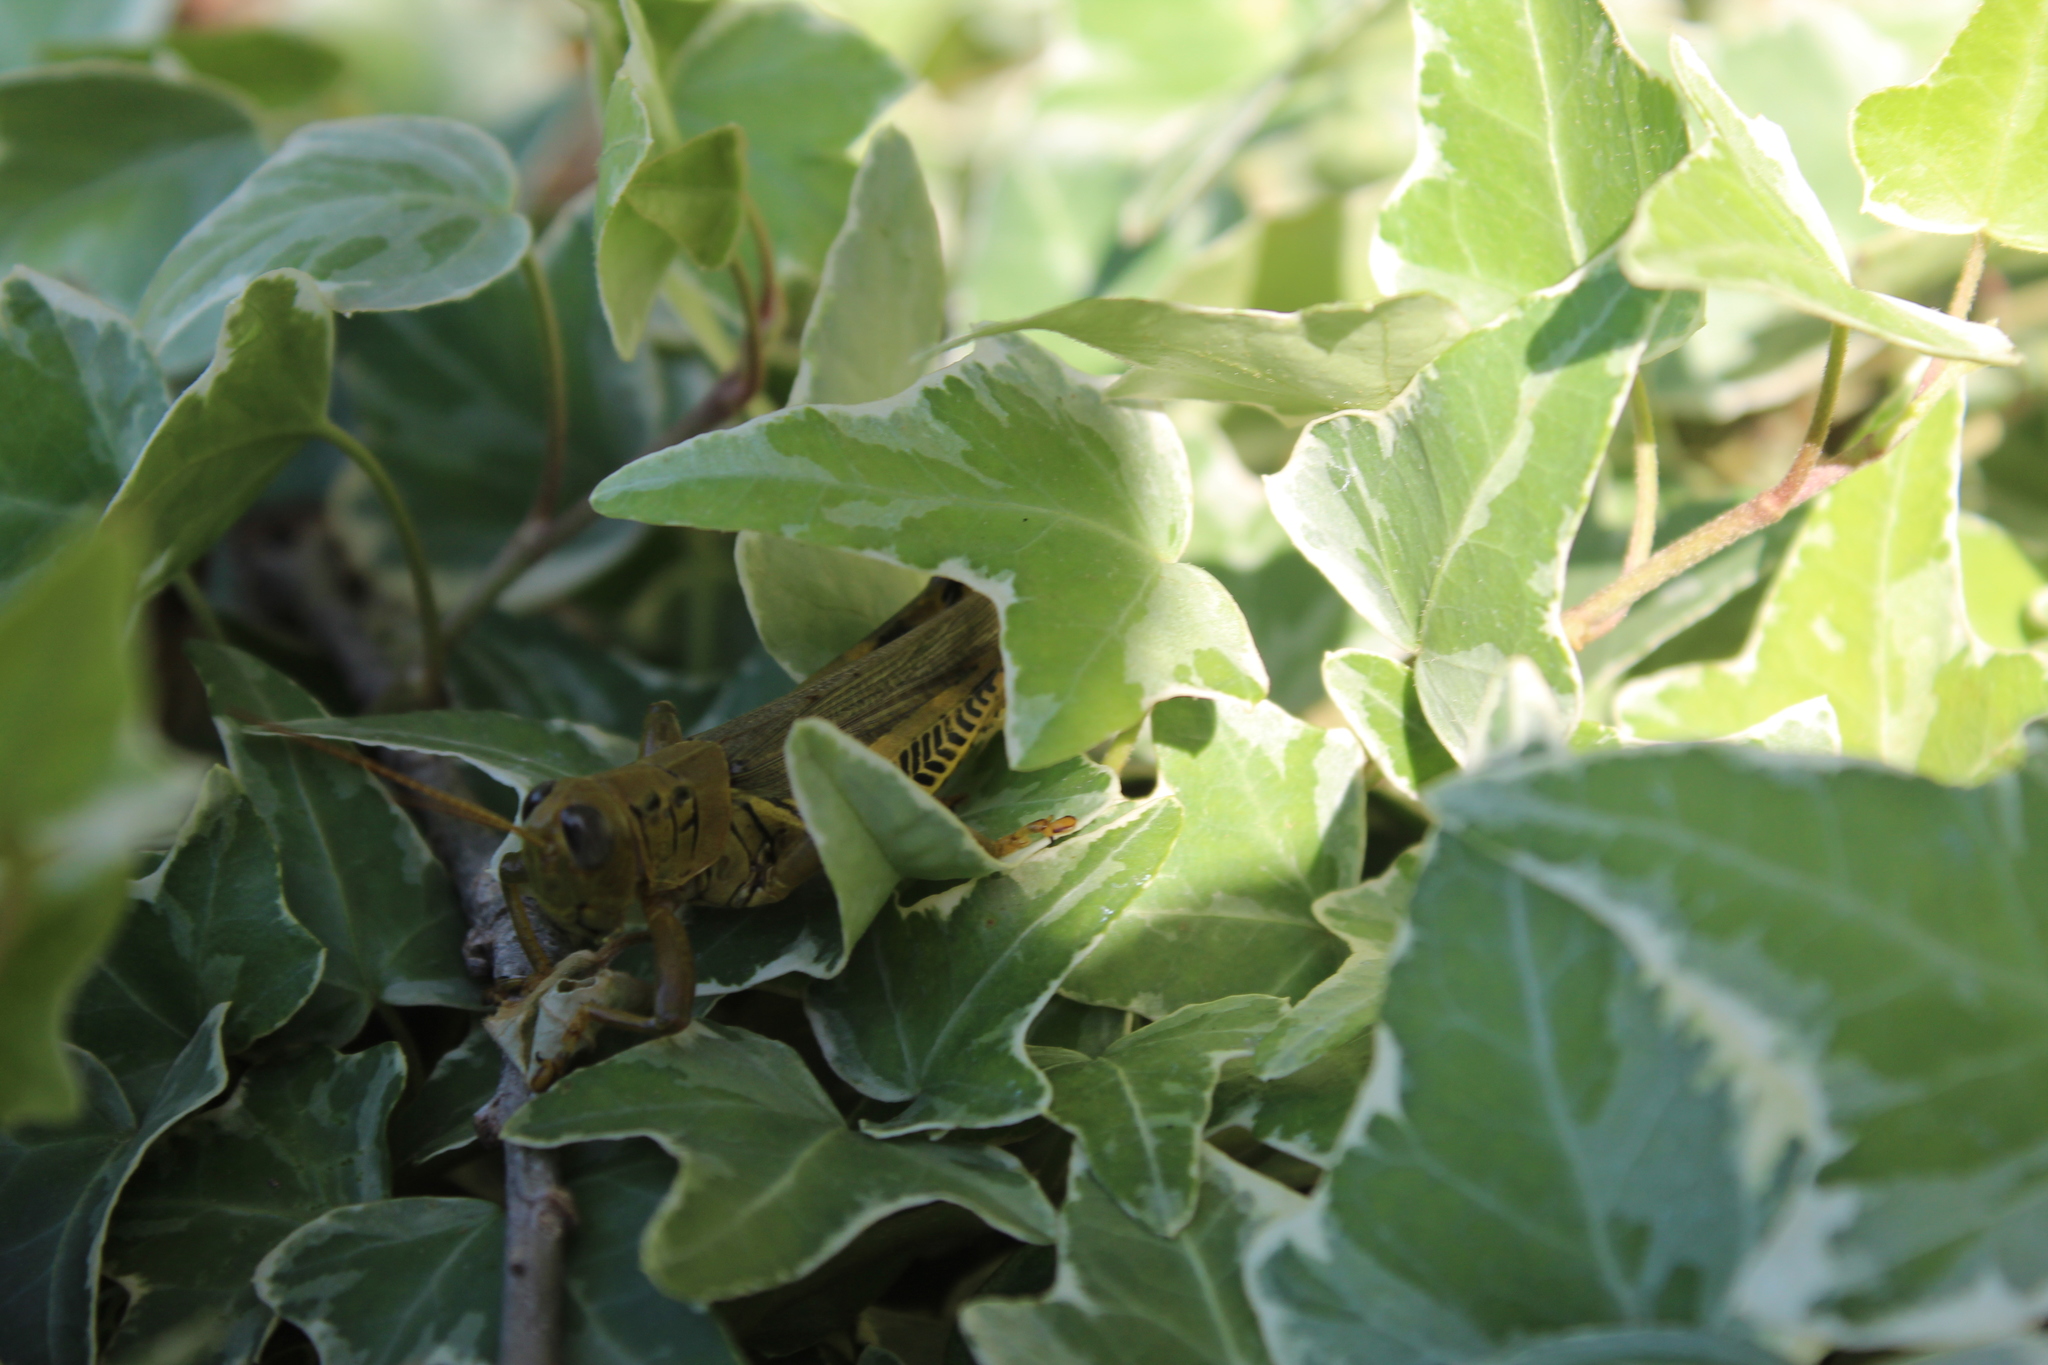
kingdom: Animalia
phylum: Arthropoda
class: Insecta
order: Orthoptera
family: Acrididae
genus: Melanoplus
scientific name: Melanoplus differentialis
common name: Differential grasshopper
